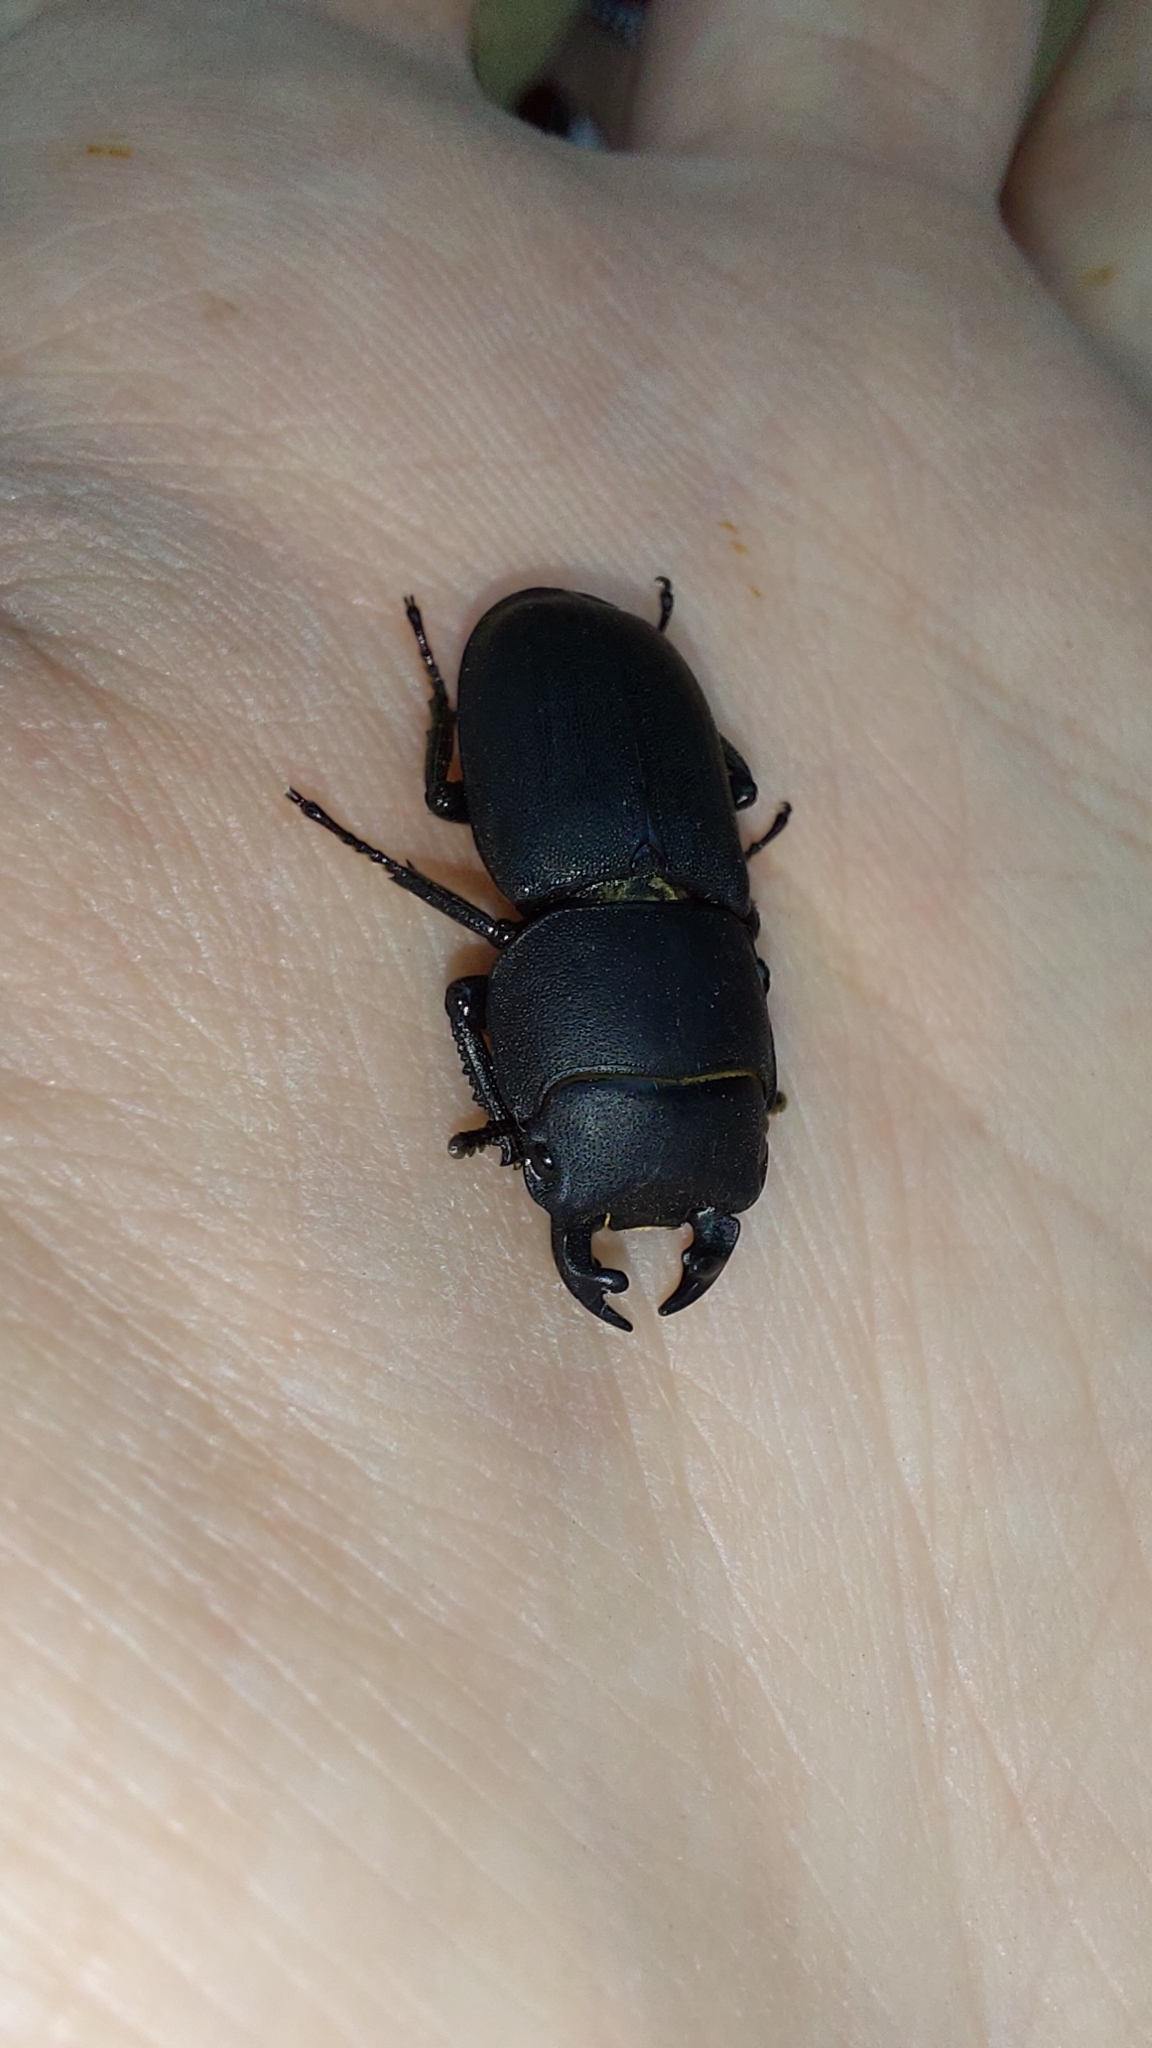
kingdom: Animalia
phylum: Arthropoda
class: Insecta
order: Coleoptera
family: Lucanidae
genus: Dorcus
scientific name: Dorcus parallelipipedus
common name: Lesser stag beetle
